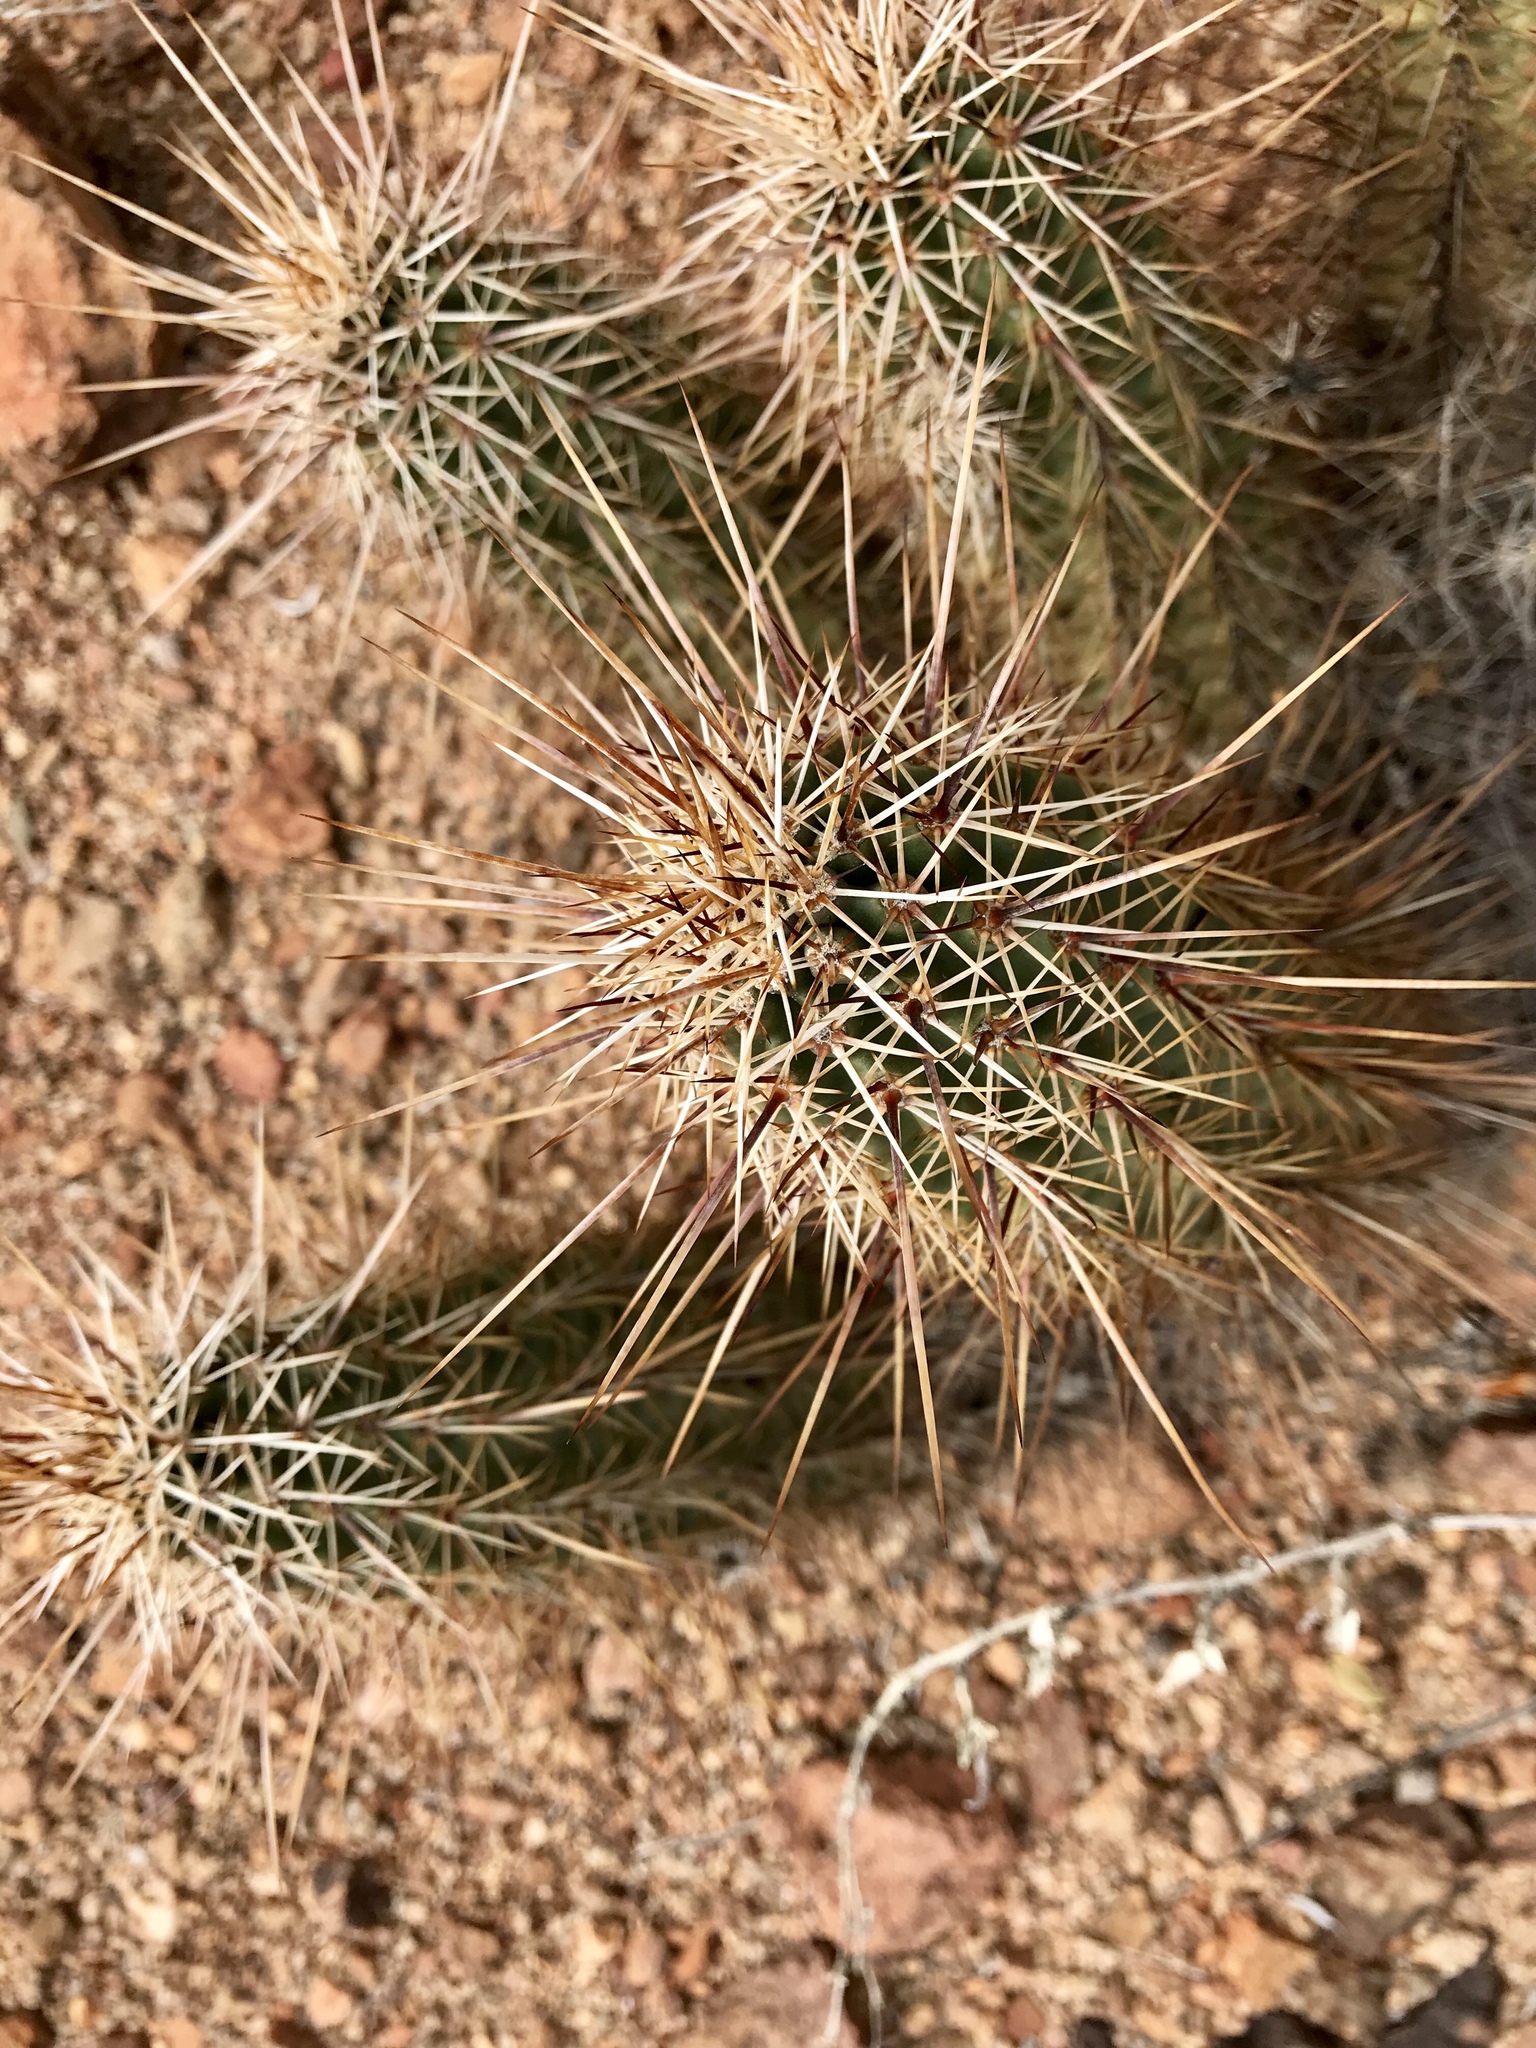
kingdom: Plantae
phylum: Tracheophyta
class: Magnoliopsida
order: Caryophyllales
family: Cactaceae
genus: Echinocereus
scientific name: Echinocereus engelmannii
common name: Engelmann's hedgehog cactus
